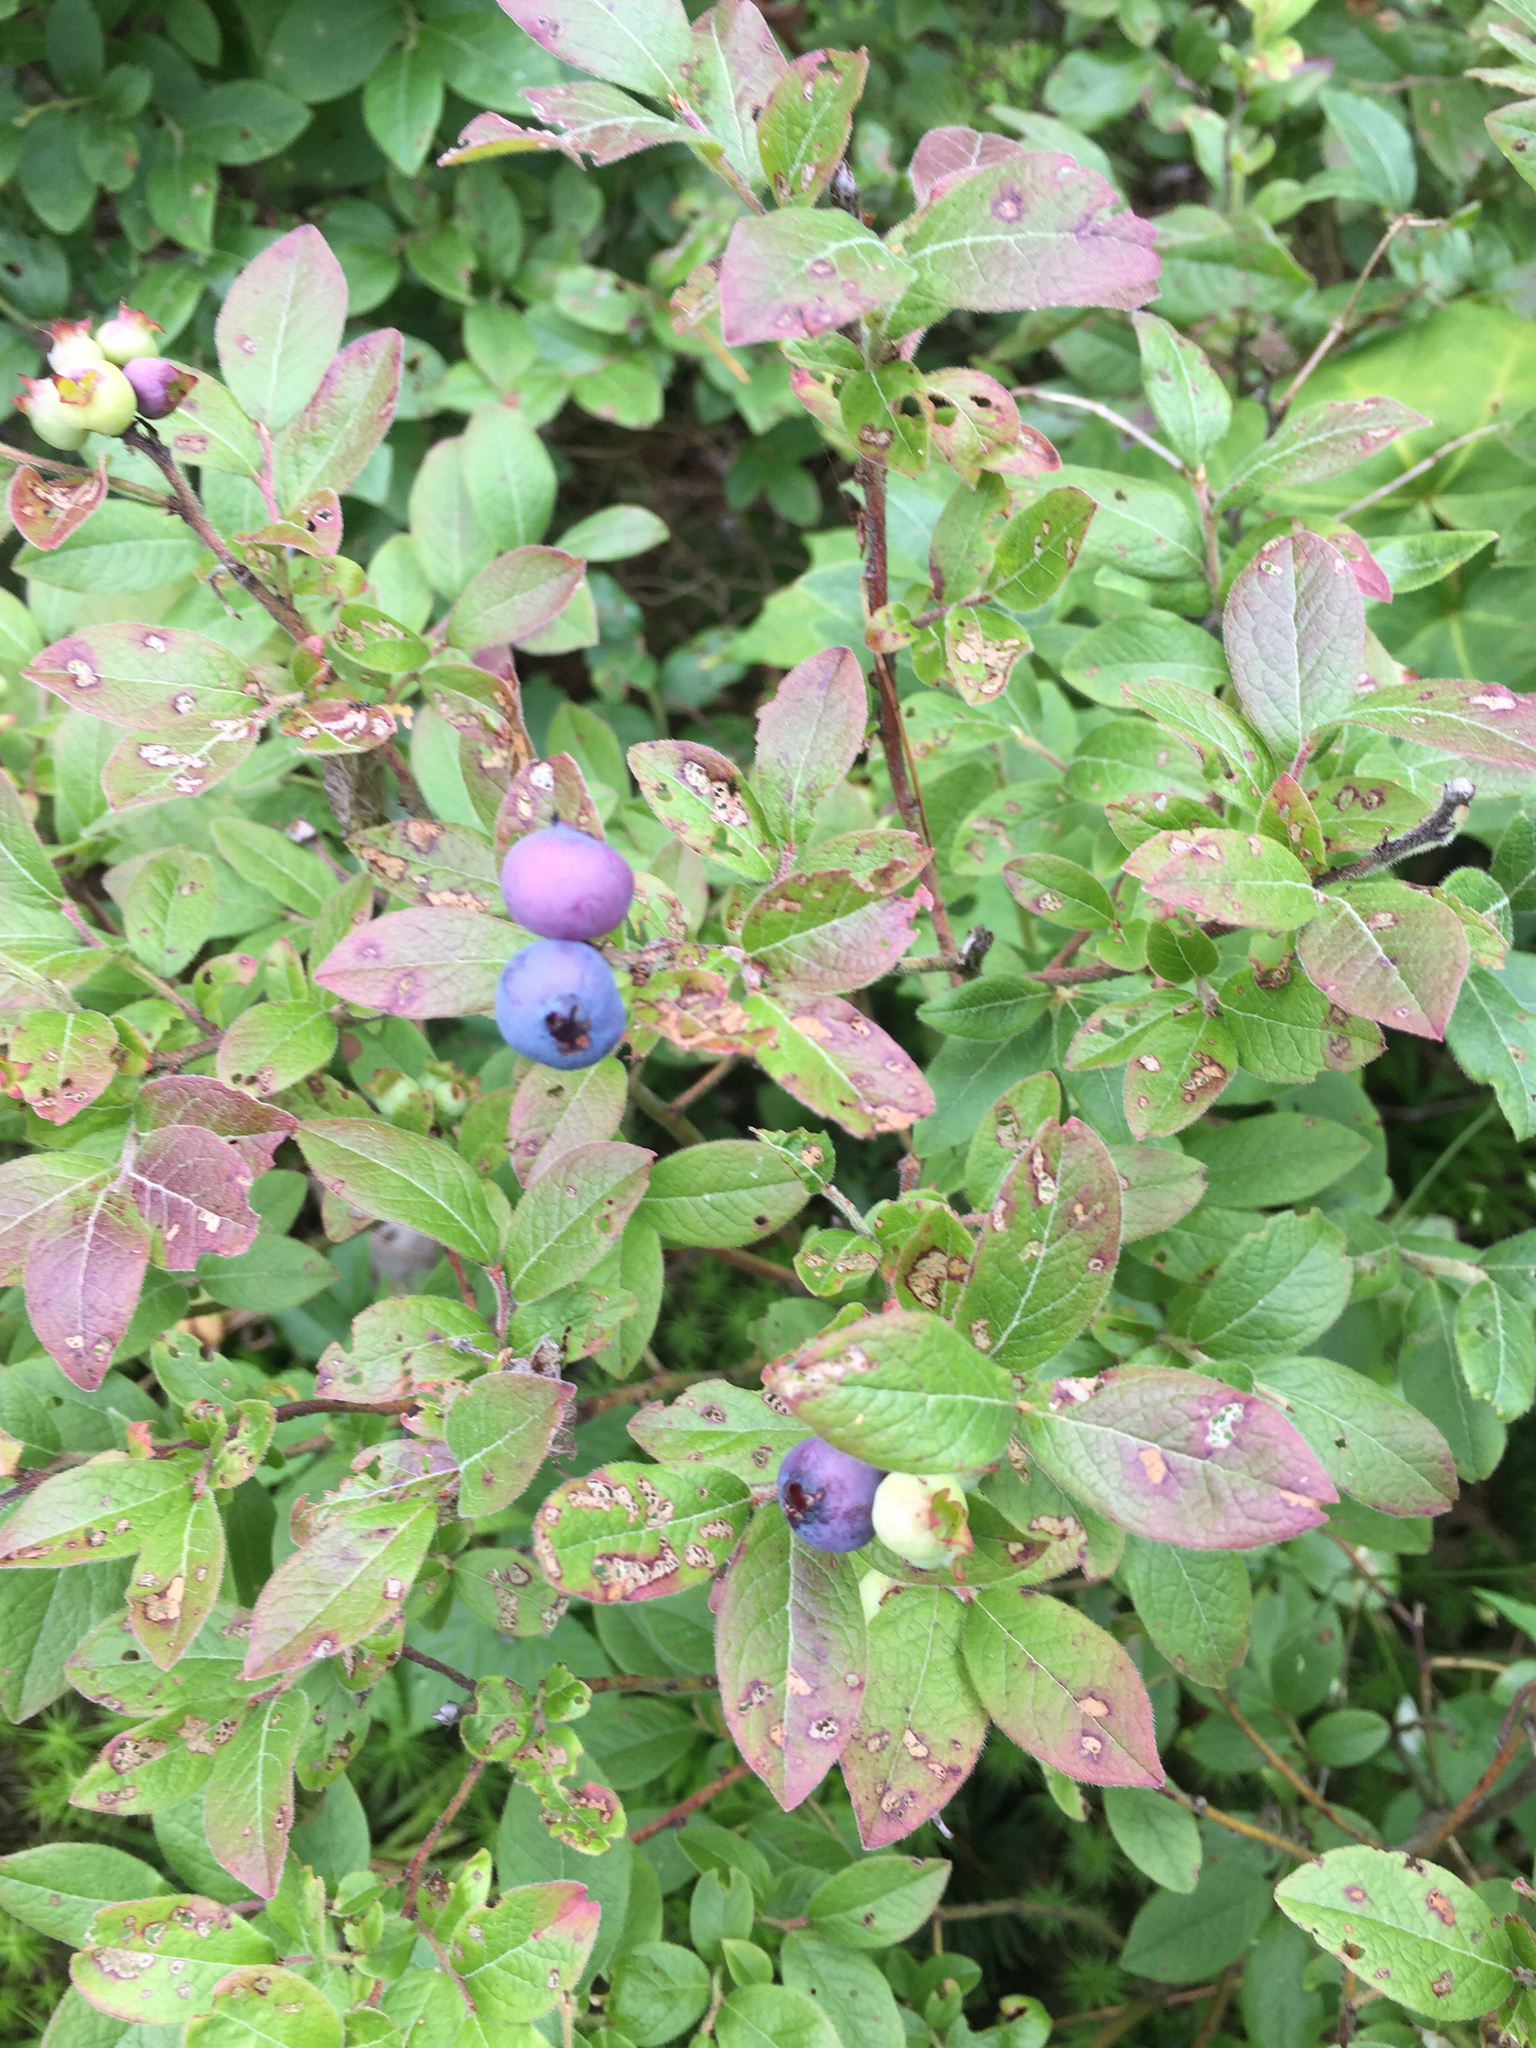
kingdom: Plantae
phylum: Tracheophyta
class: Magnoliopsida
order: Ericales
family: Ericaceae
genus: Vaccinium
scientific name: Vaccinium myrtilloides
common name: Canada blueberry
